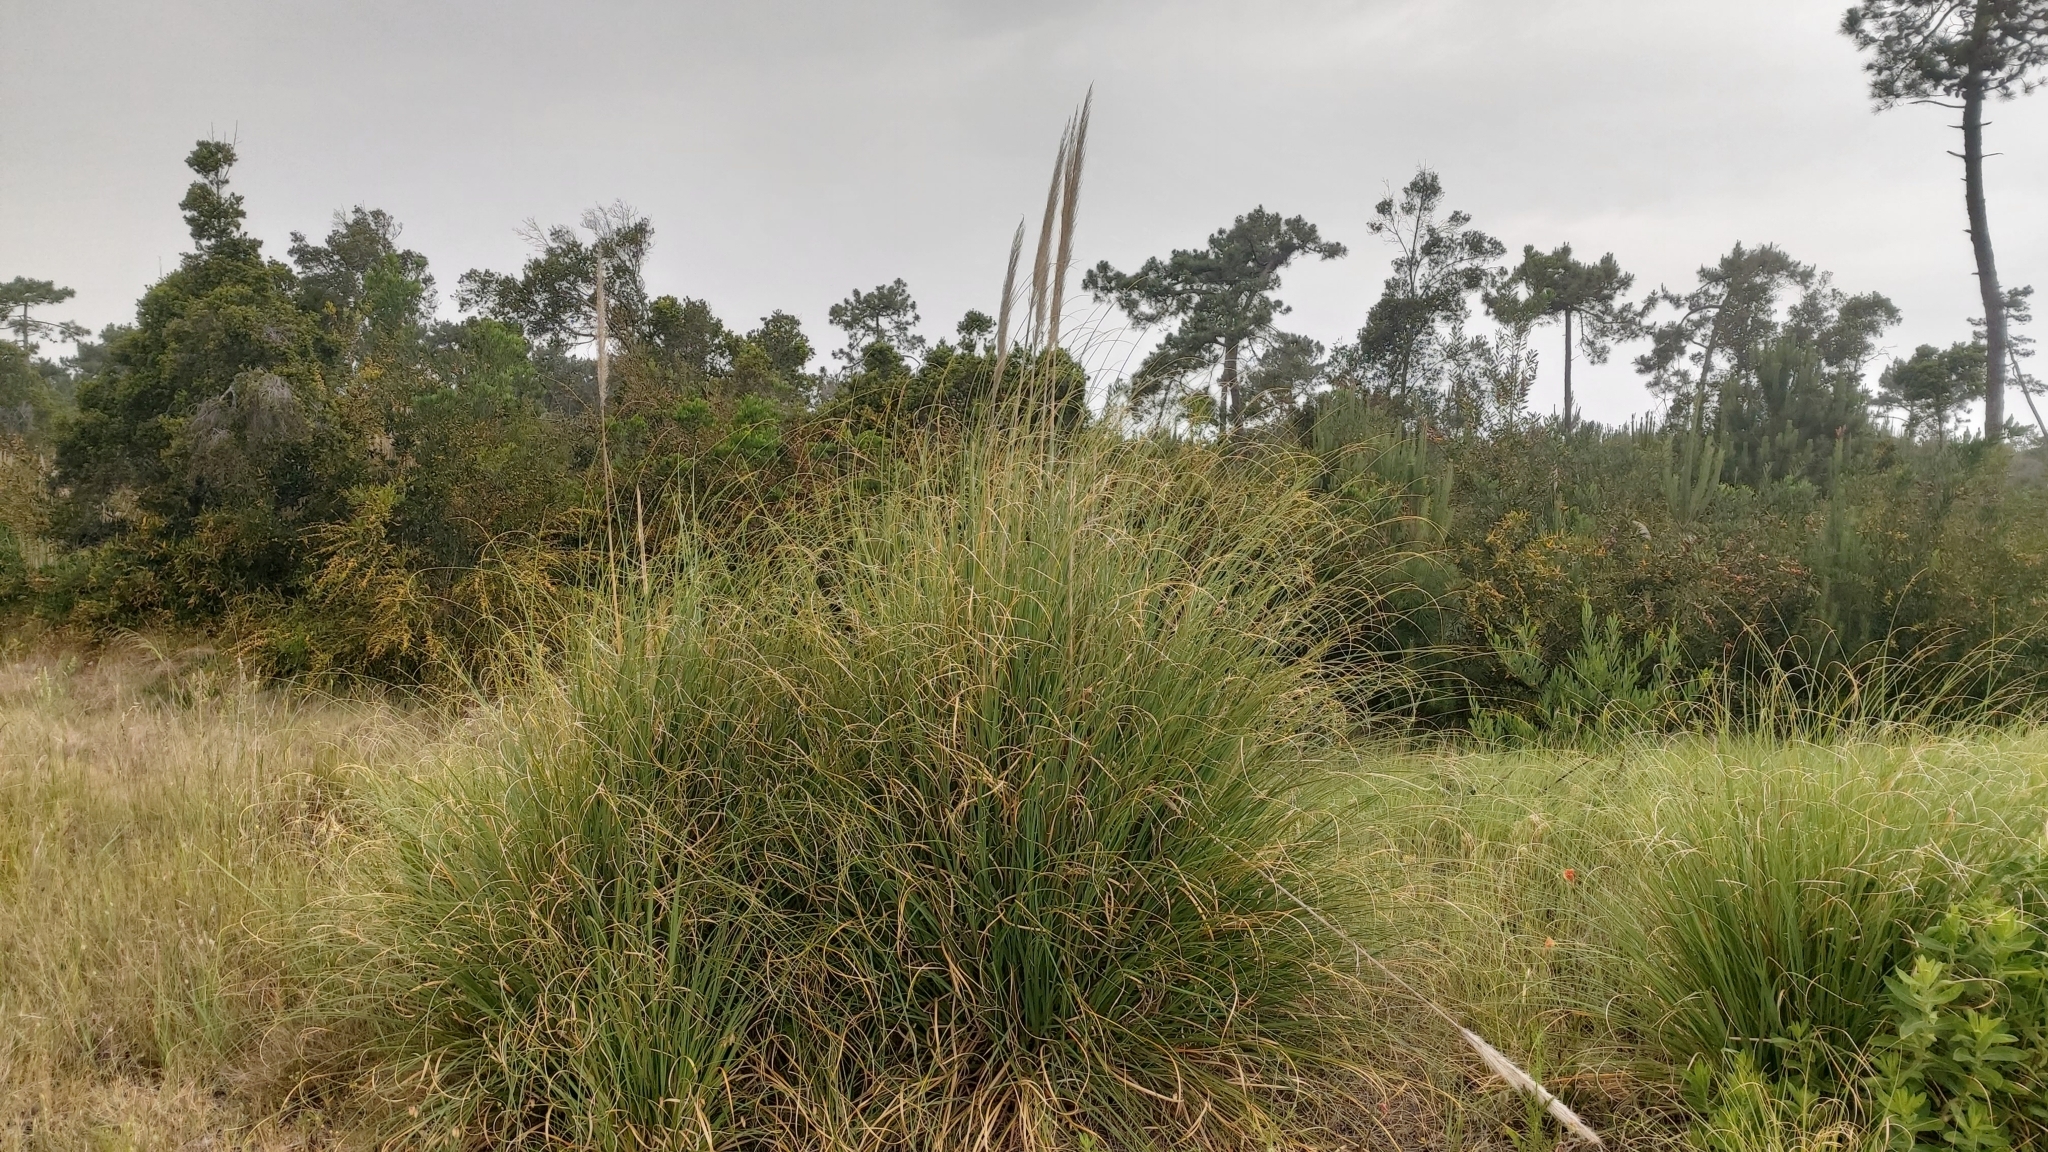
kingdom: Plantae
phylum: Tracheophyta
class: Liliopsida
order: Poales
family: Poaceae
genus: Cortaderia
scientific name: Cortaderia selloana
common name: Uruguayan pampas grass
